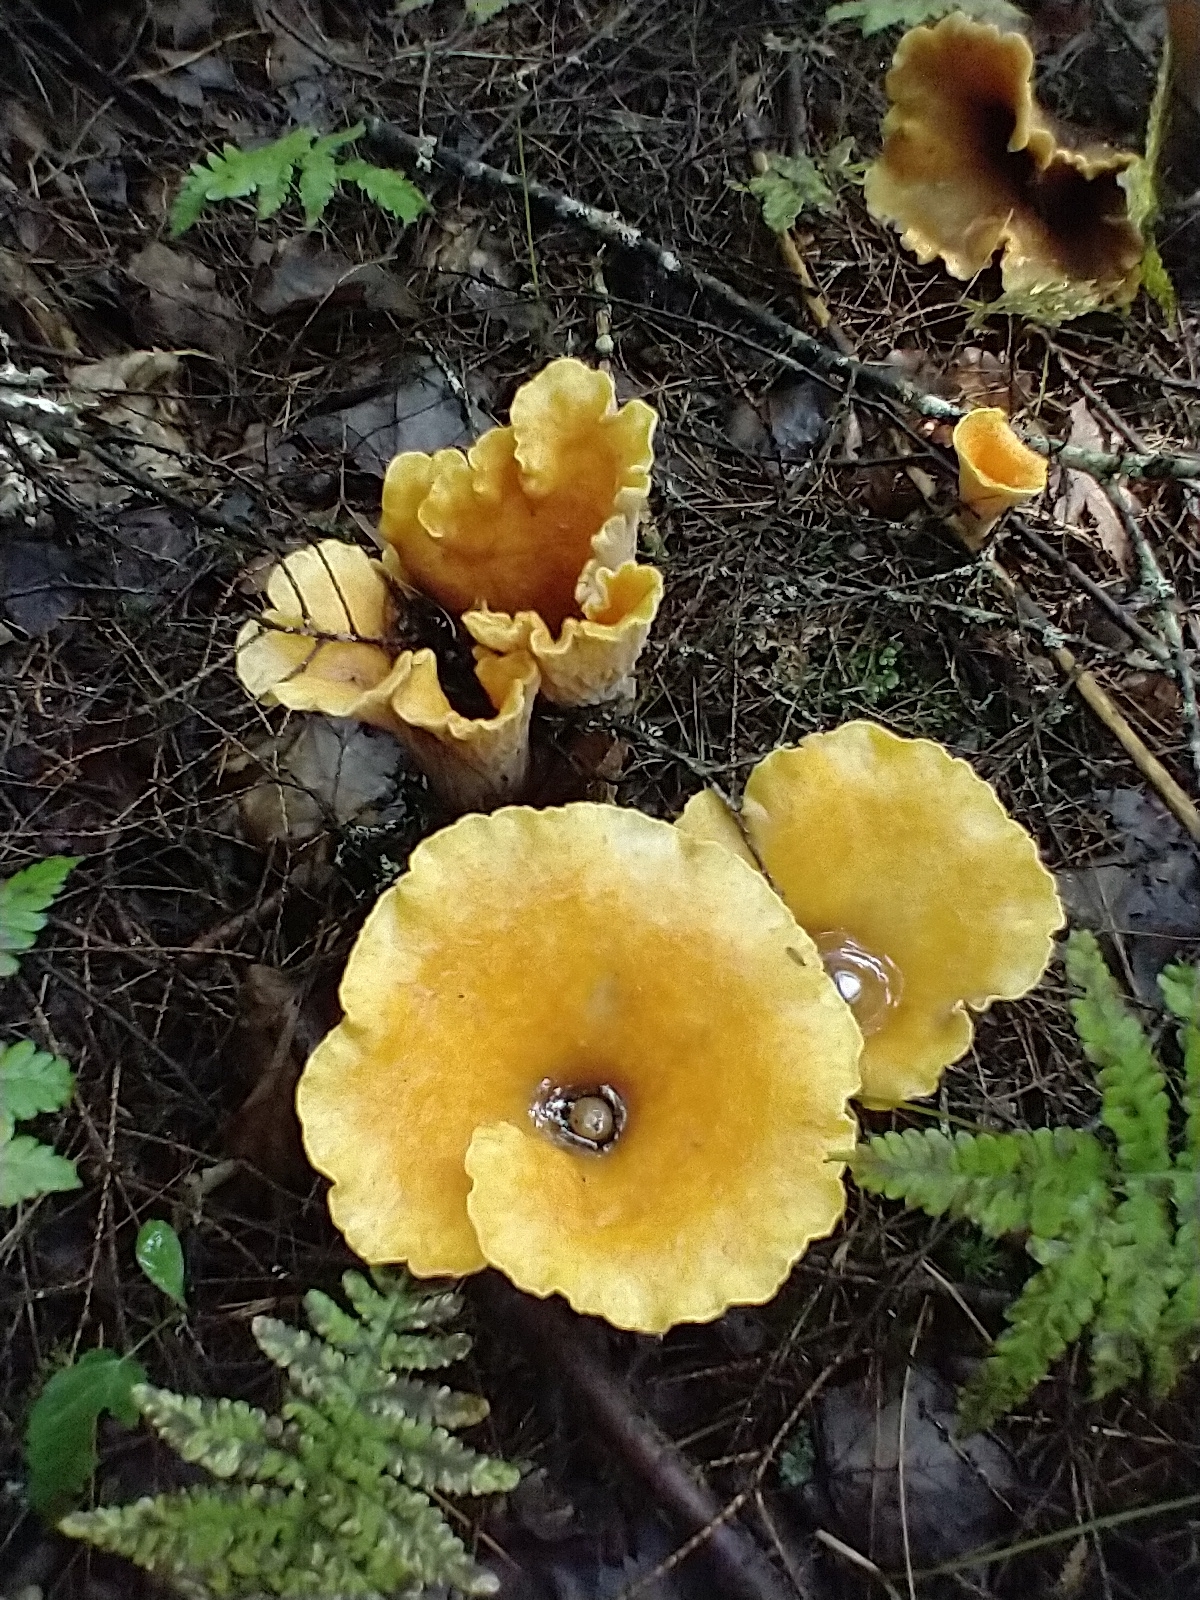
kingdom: Fungi
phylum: Basidiomycota
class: Agaricomycetes
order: Gomphales
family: Gomphaceae
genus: Turbinellus
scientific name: Turbinellus floccosus
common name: Scaly chanterelle
